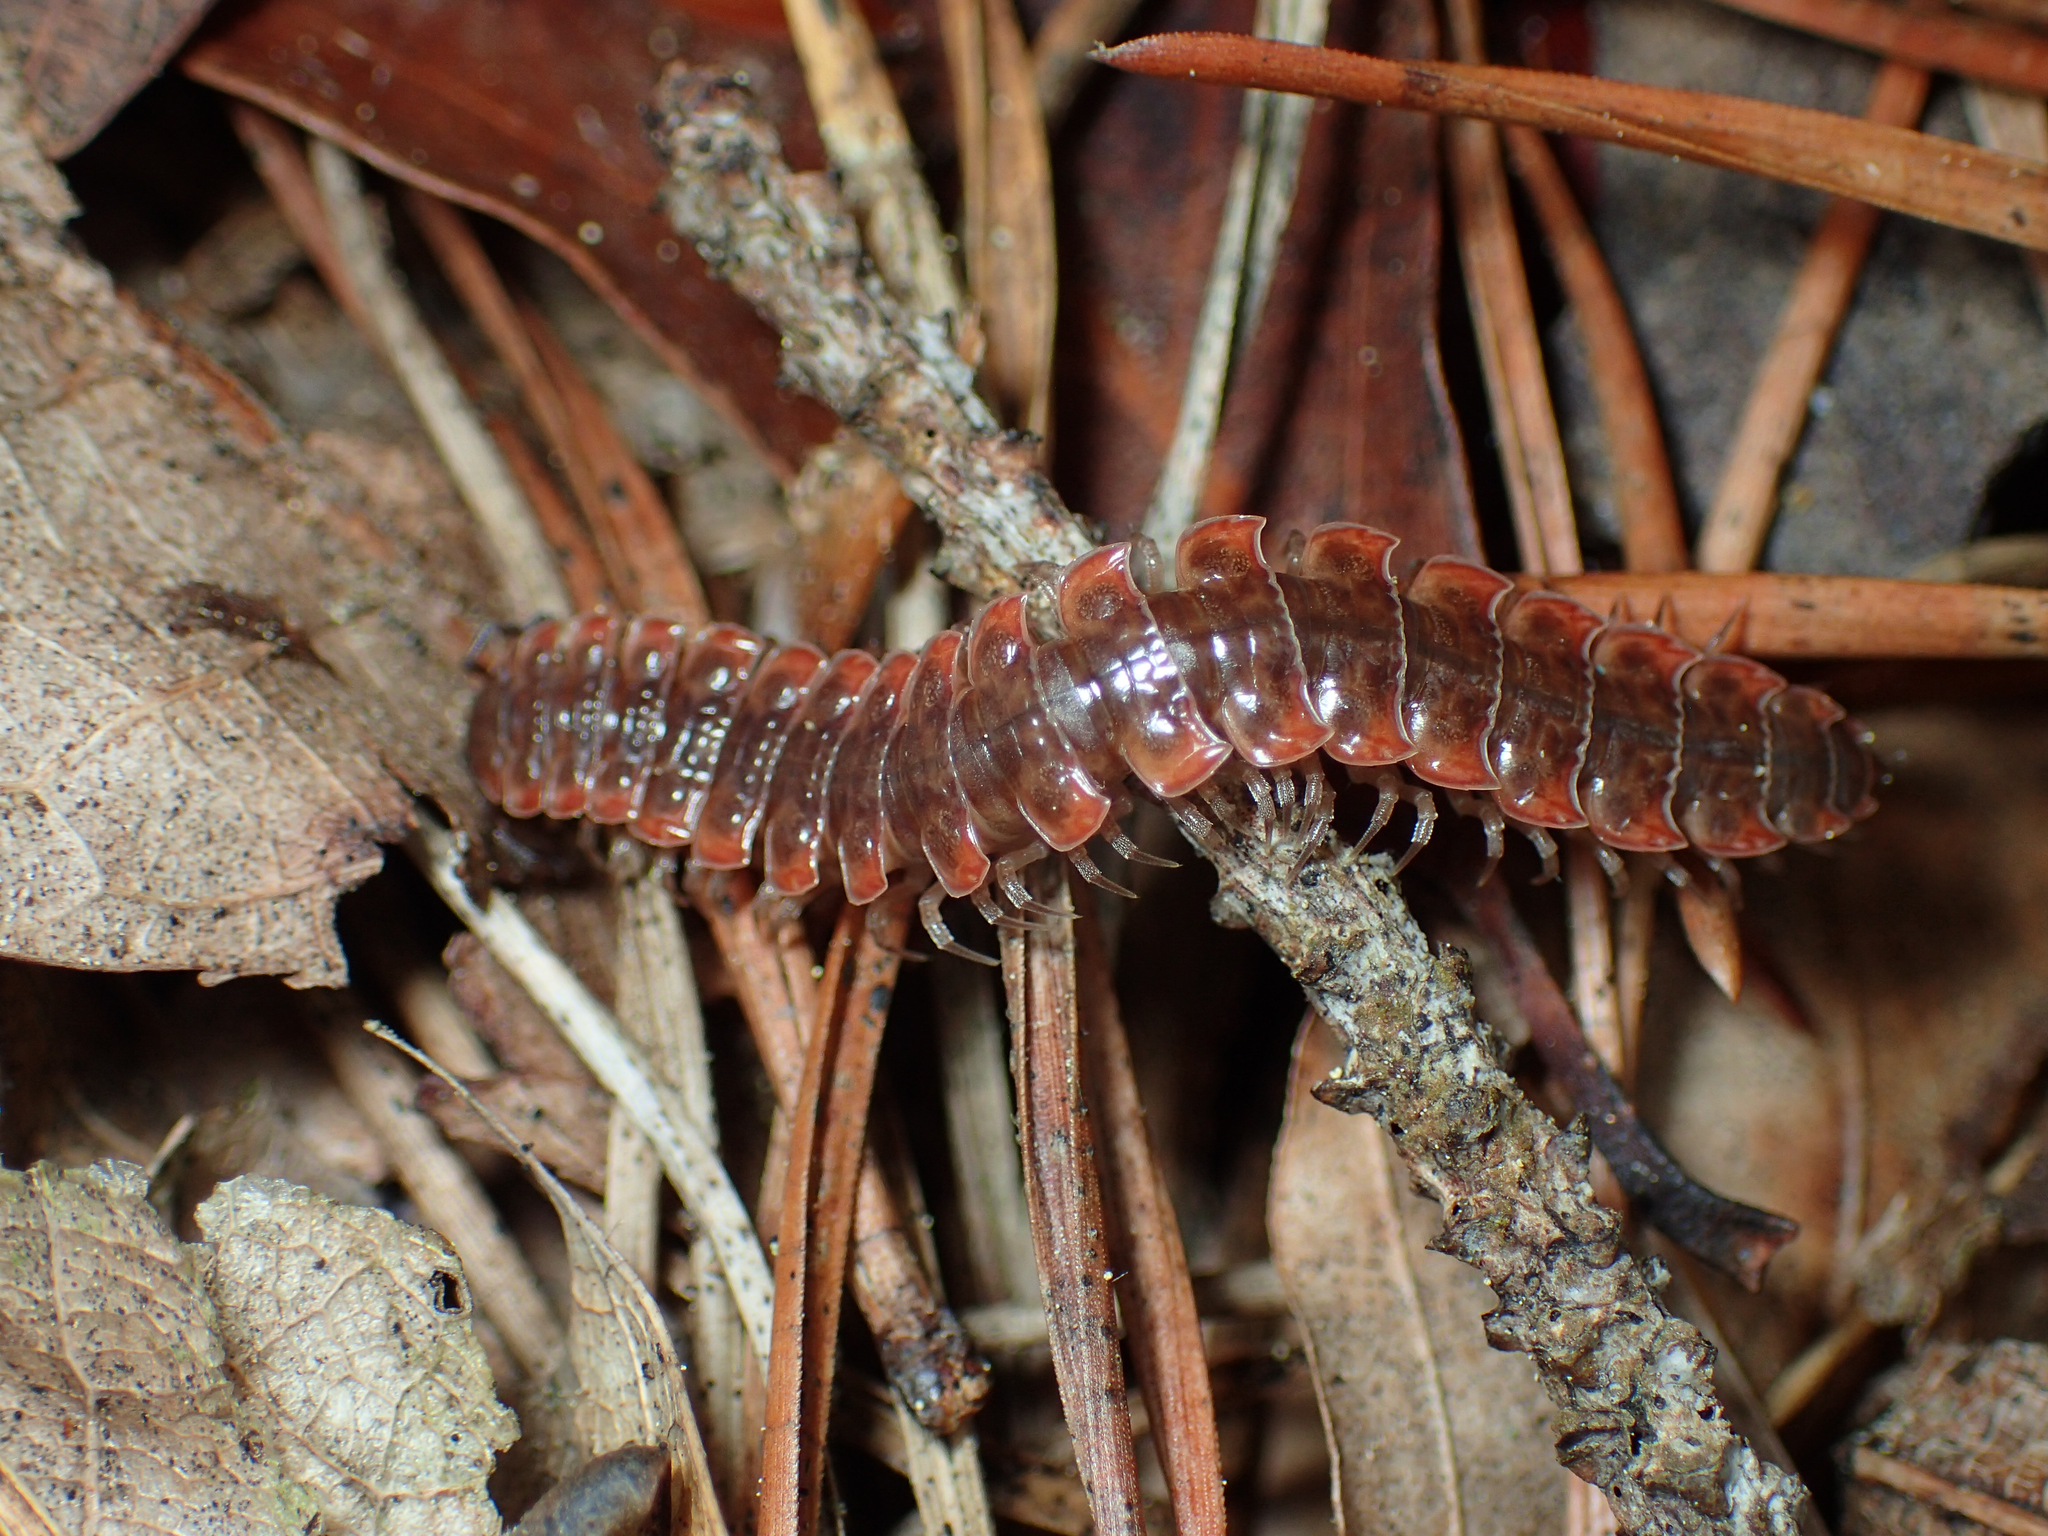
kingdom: Animalia
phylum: Arthropoda
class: Diplopoda
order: Polydesmida
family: Polydesmidae
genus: Pseudopolydesmus
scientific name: Pseudopolydesmus erasus
